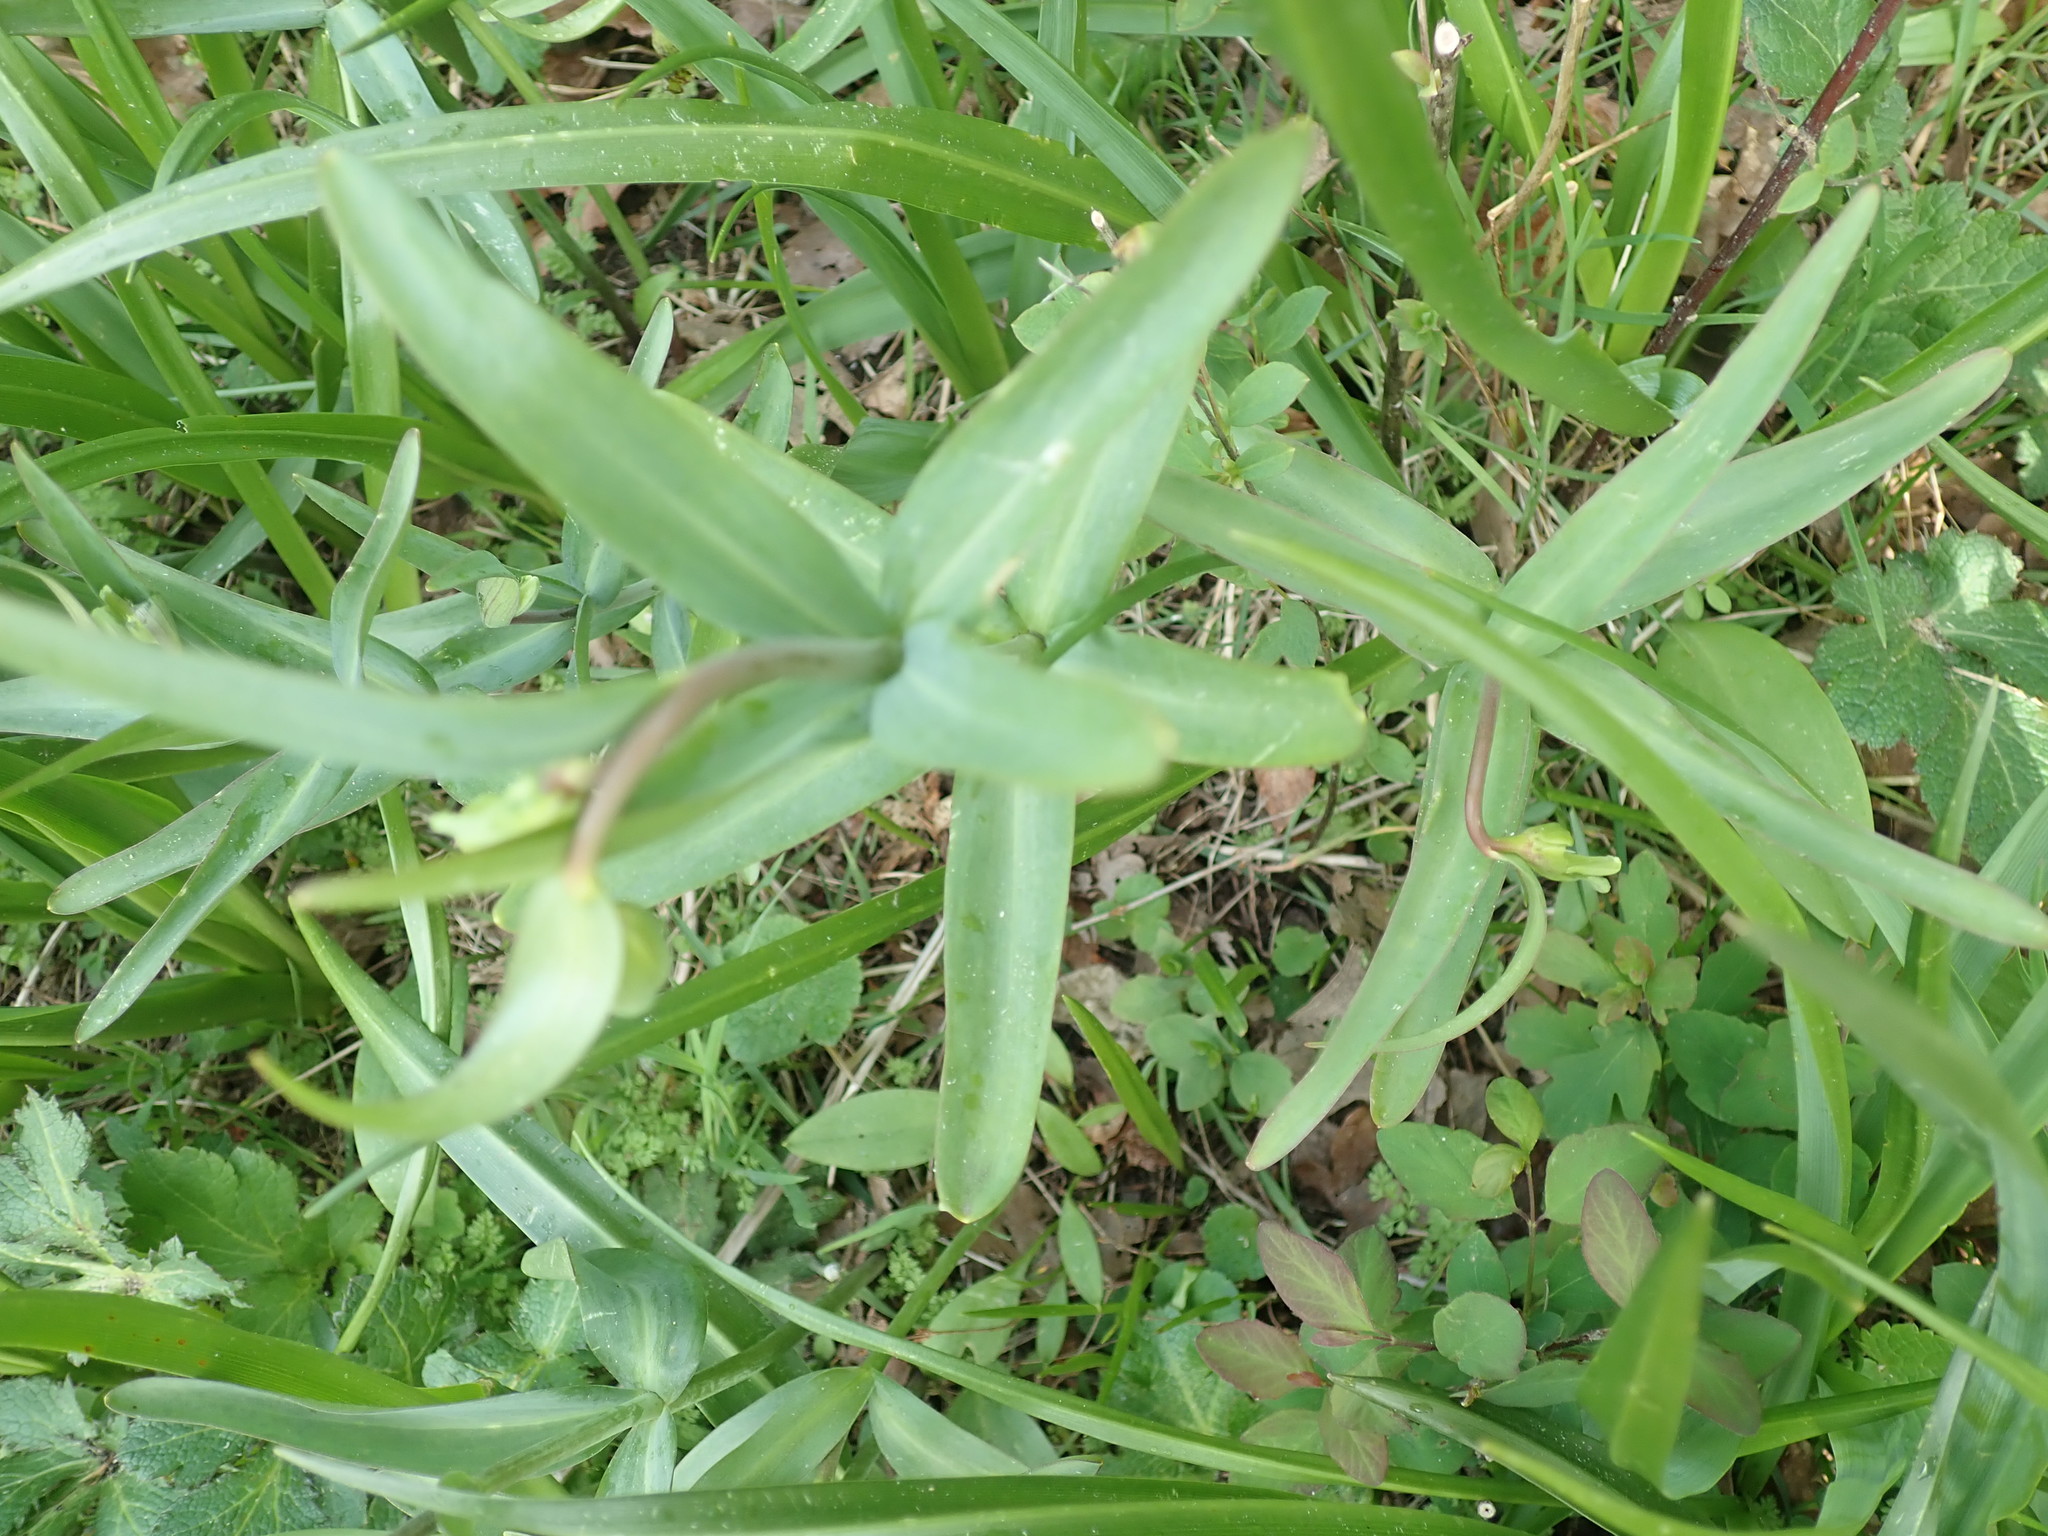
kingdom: Plantae
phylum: Tracheophyta
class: Liliopsida
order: Liliales
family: Liliaceae
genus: Fritillaria
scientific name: Fritillaria affinis
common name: Ojai fritillary
